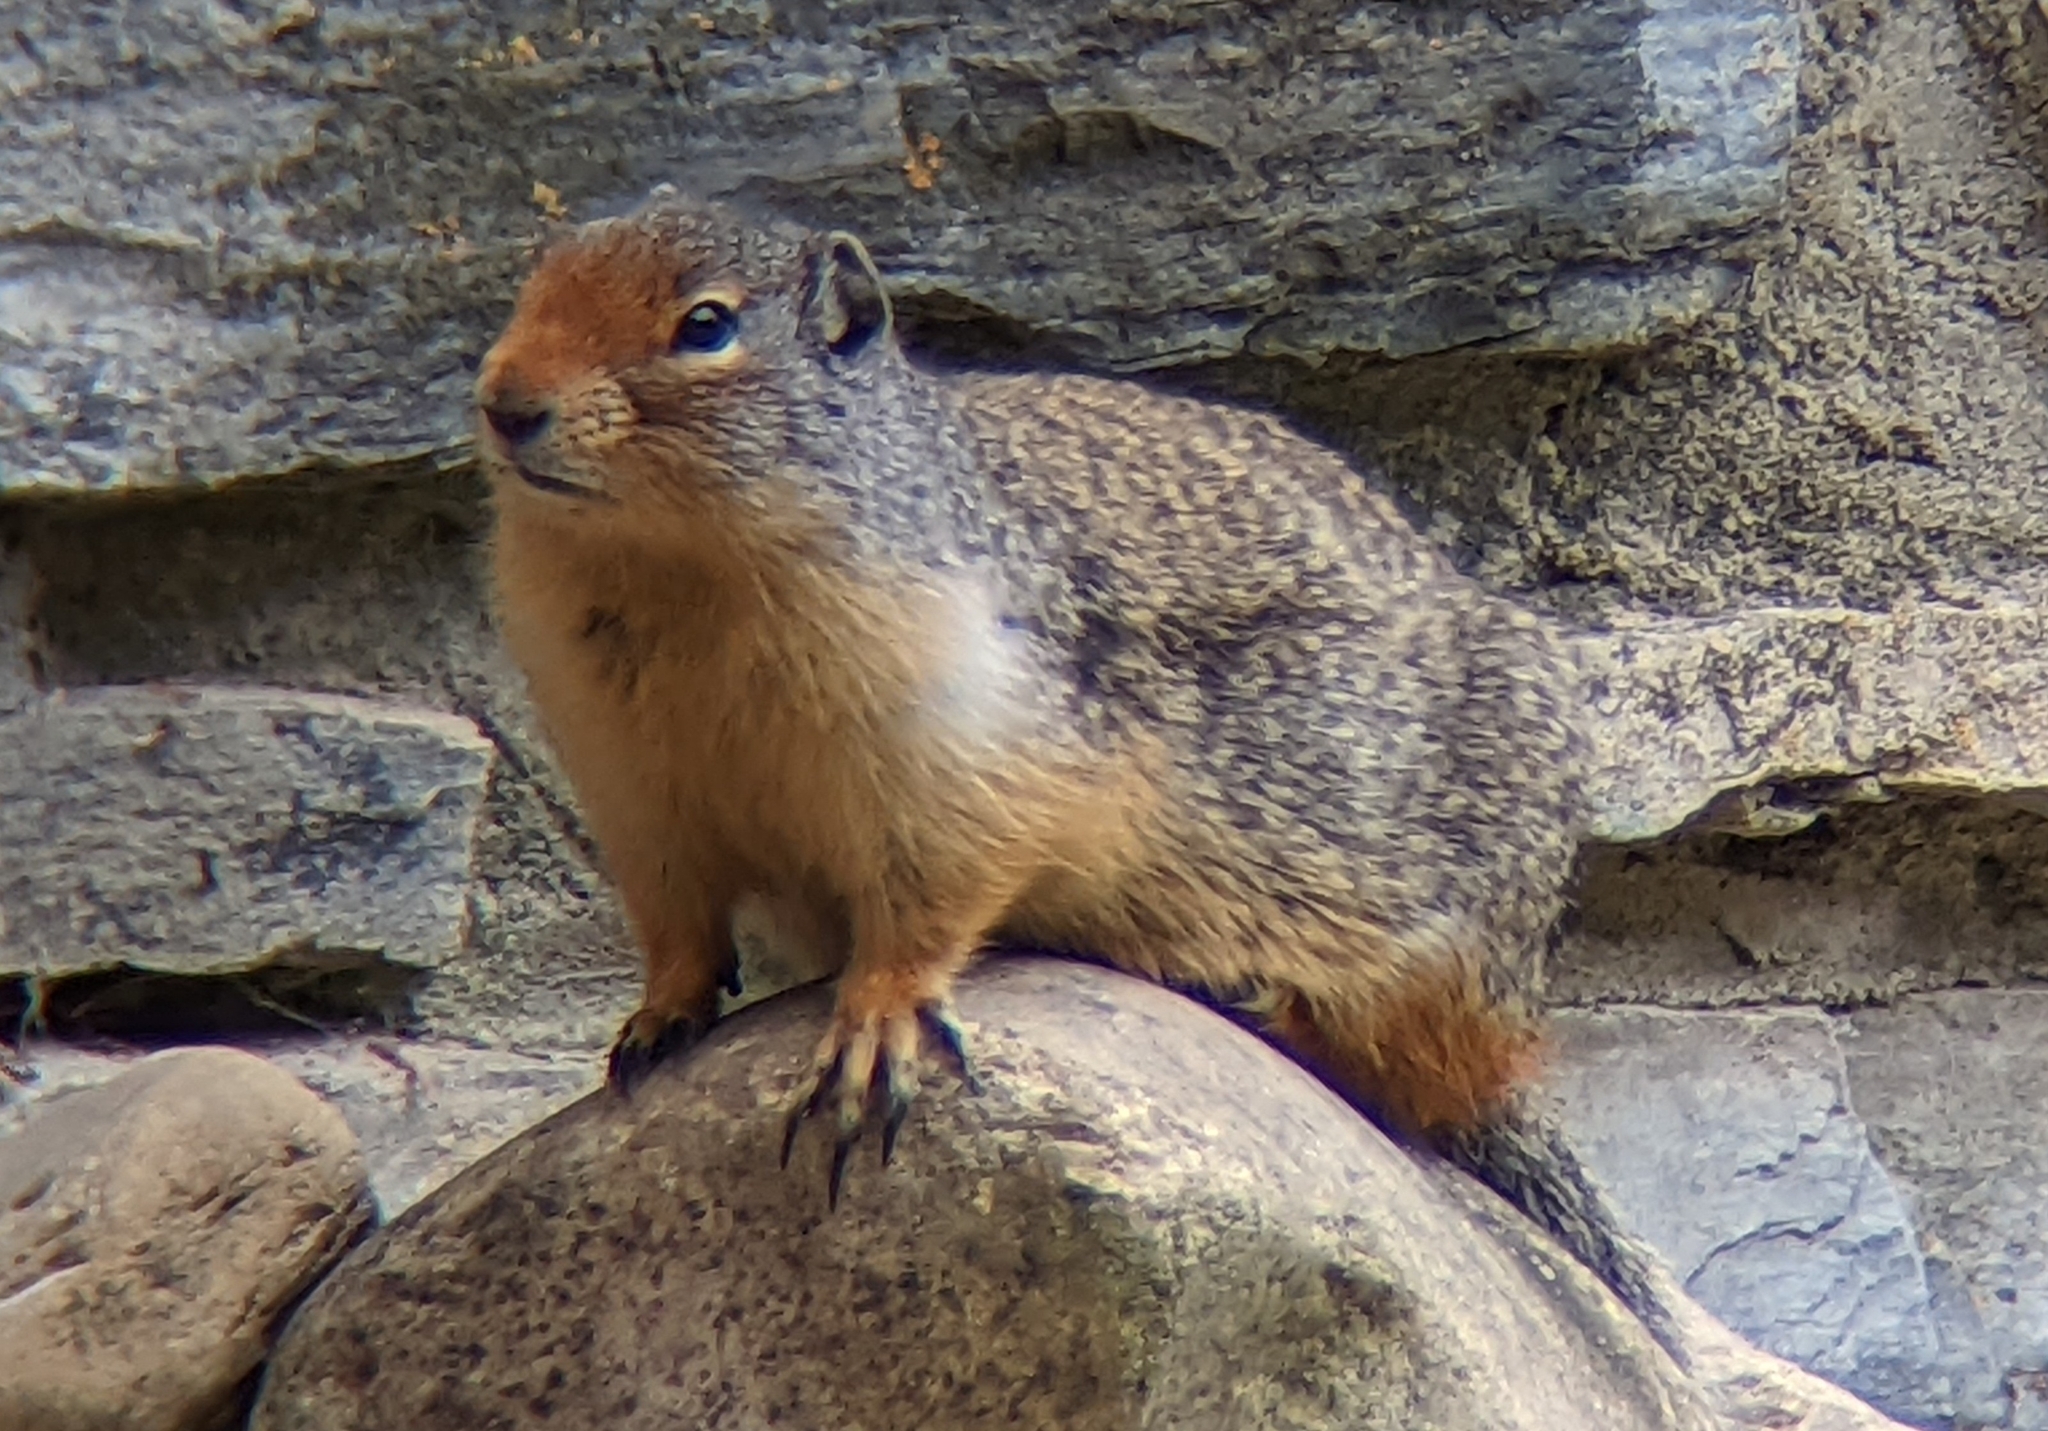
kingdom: Animalia
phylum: Chordata
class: Mammalia
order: Rodentia
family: Sciuridae
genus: Urocitellus
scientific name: Urocitellus columbianus
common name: Columbian ground squirrel
